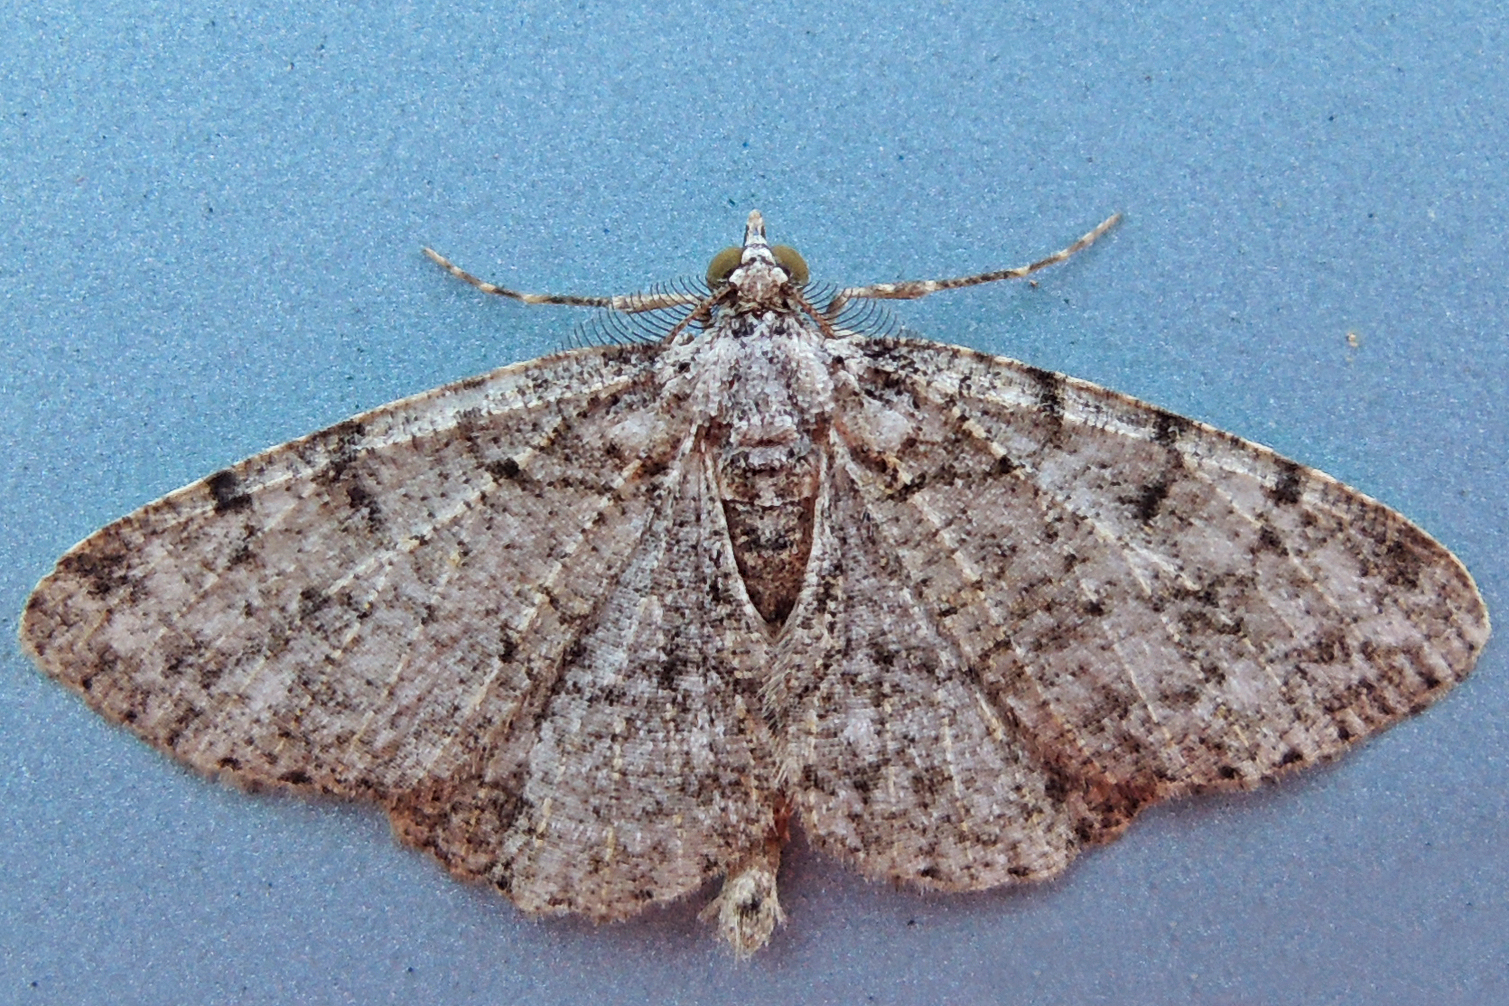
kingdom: Animalia
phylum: Arthropoda
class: Insecta
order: Lepidoptera
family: Geometridae
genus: Protoboarmia
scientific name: Protoboarmia porcelaria
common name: Porcelain gray
